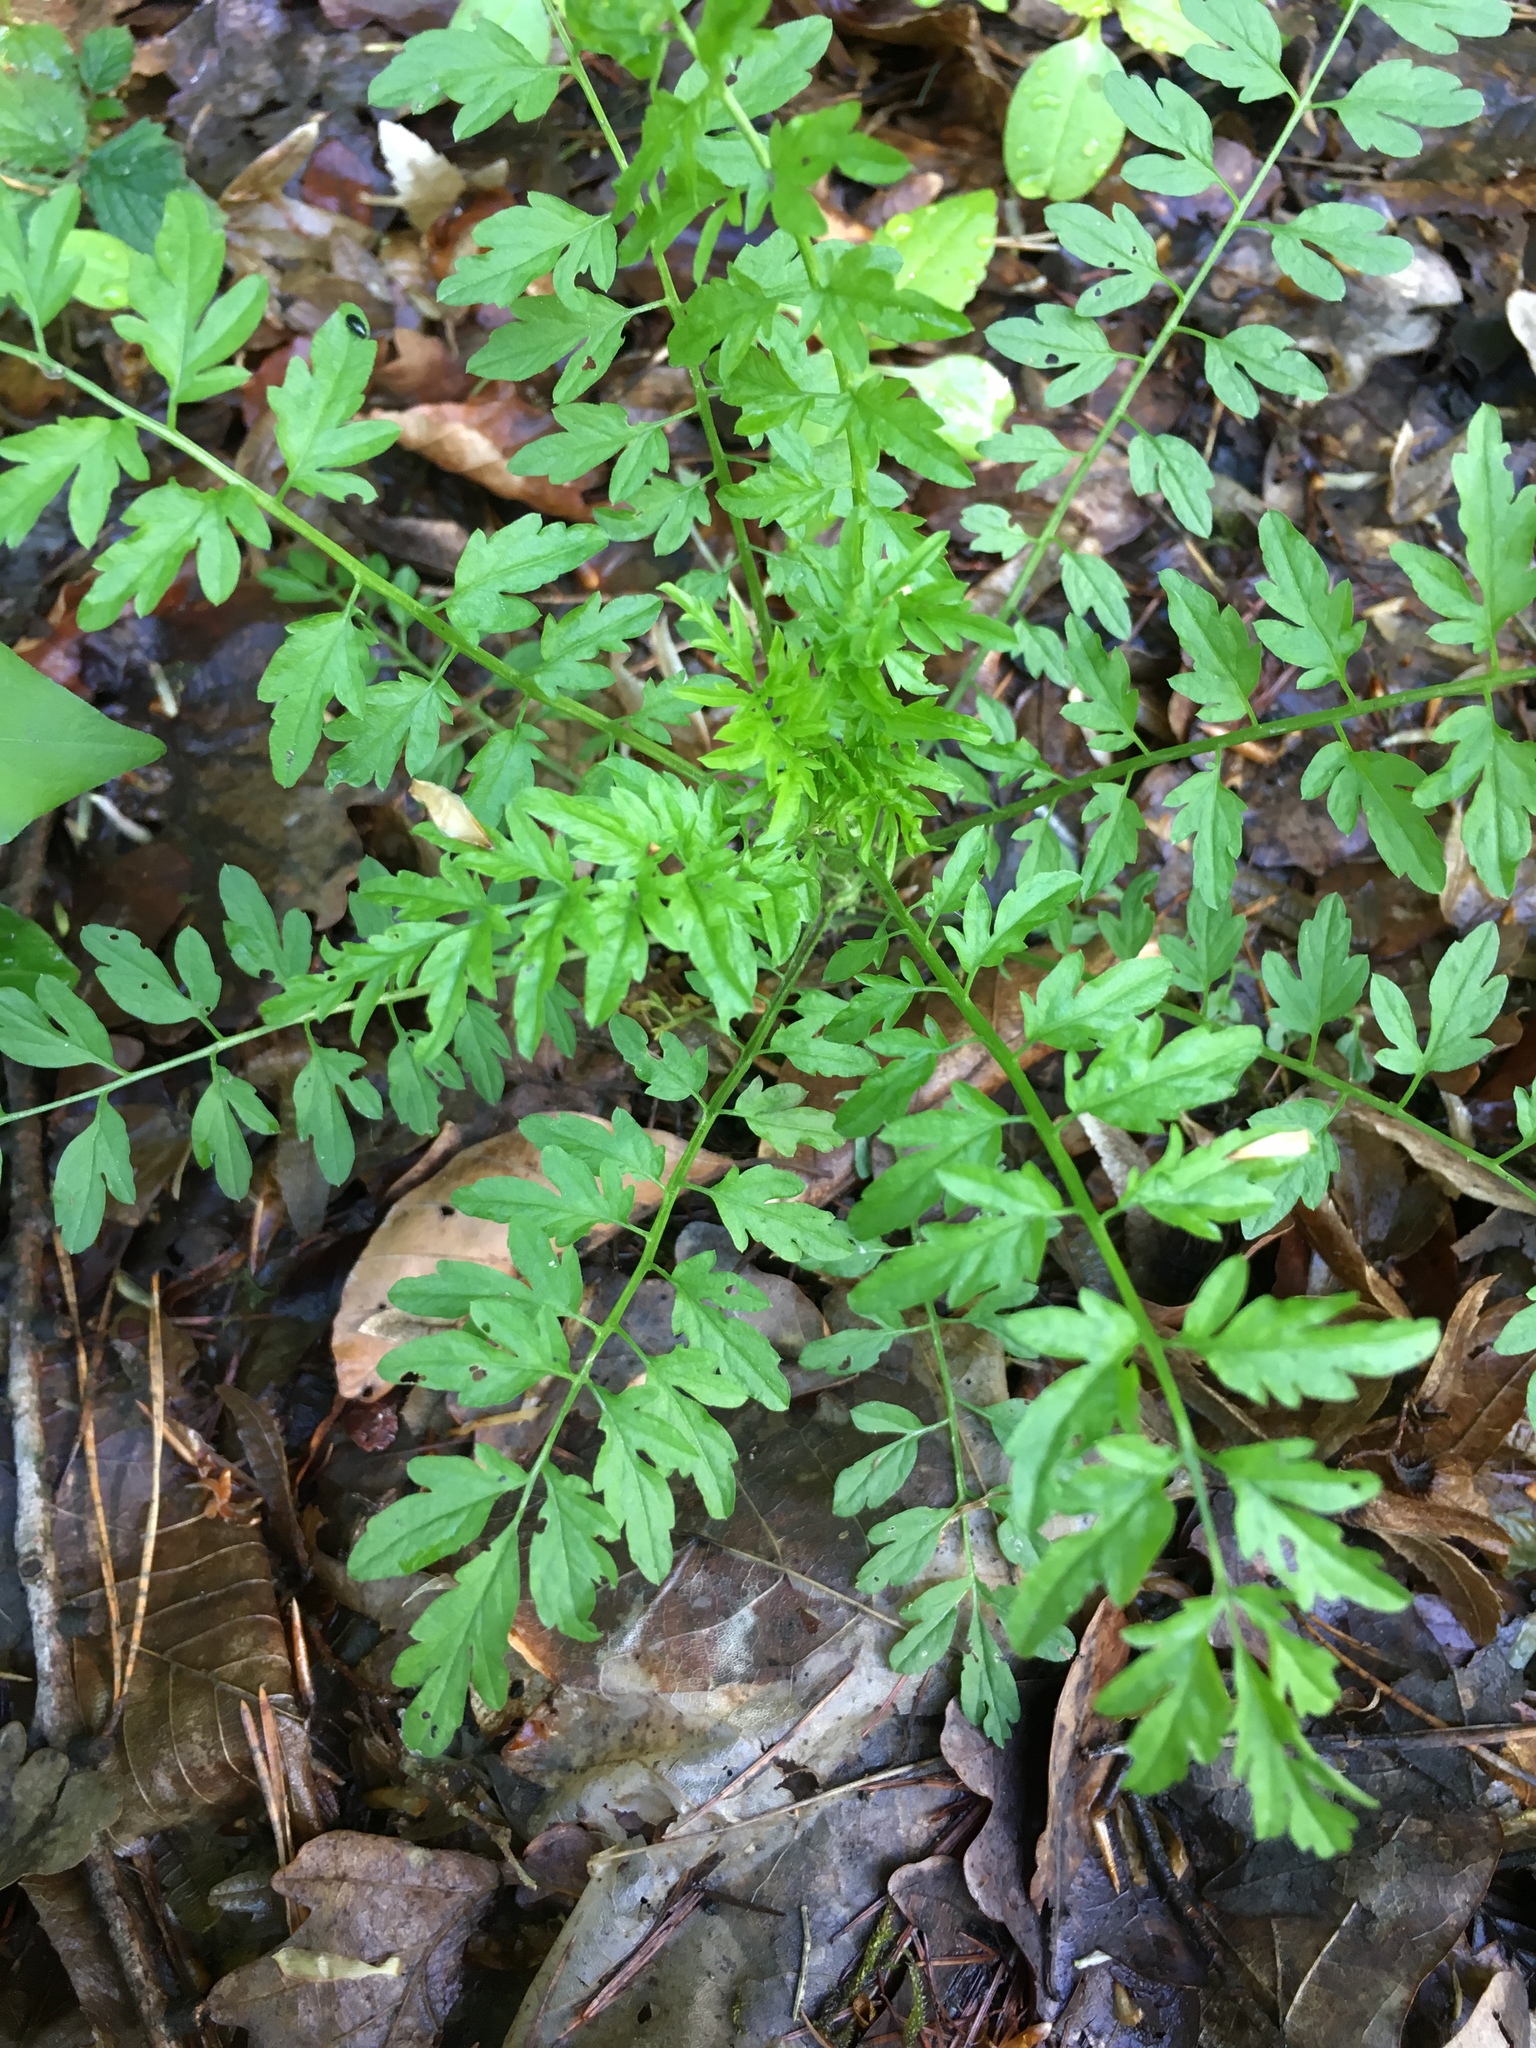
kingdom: Plantae
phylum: Tracheophyta
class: Magnoliopsida
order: Brassicales
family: Brassicaceae
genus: Cardamine
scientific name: Cardamine impatiens
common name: Narrow-leaved bitter-cress
